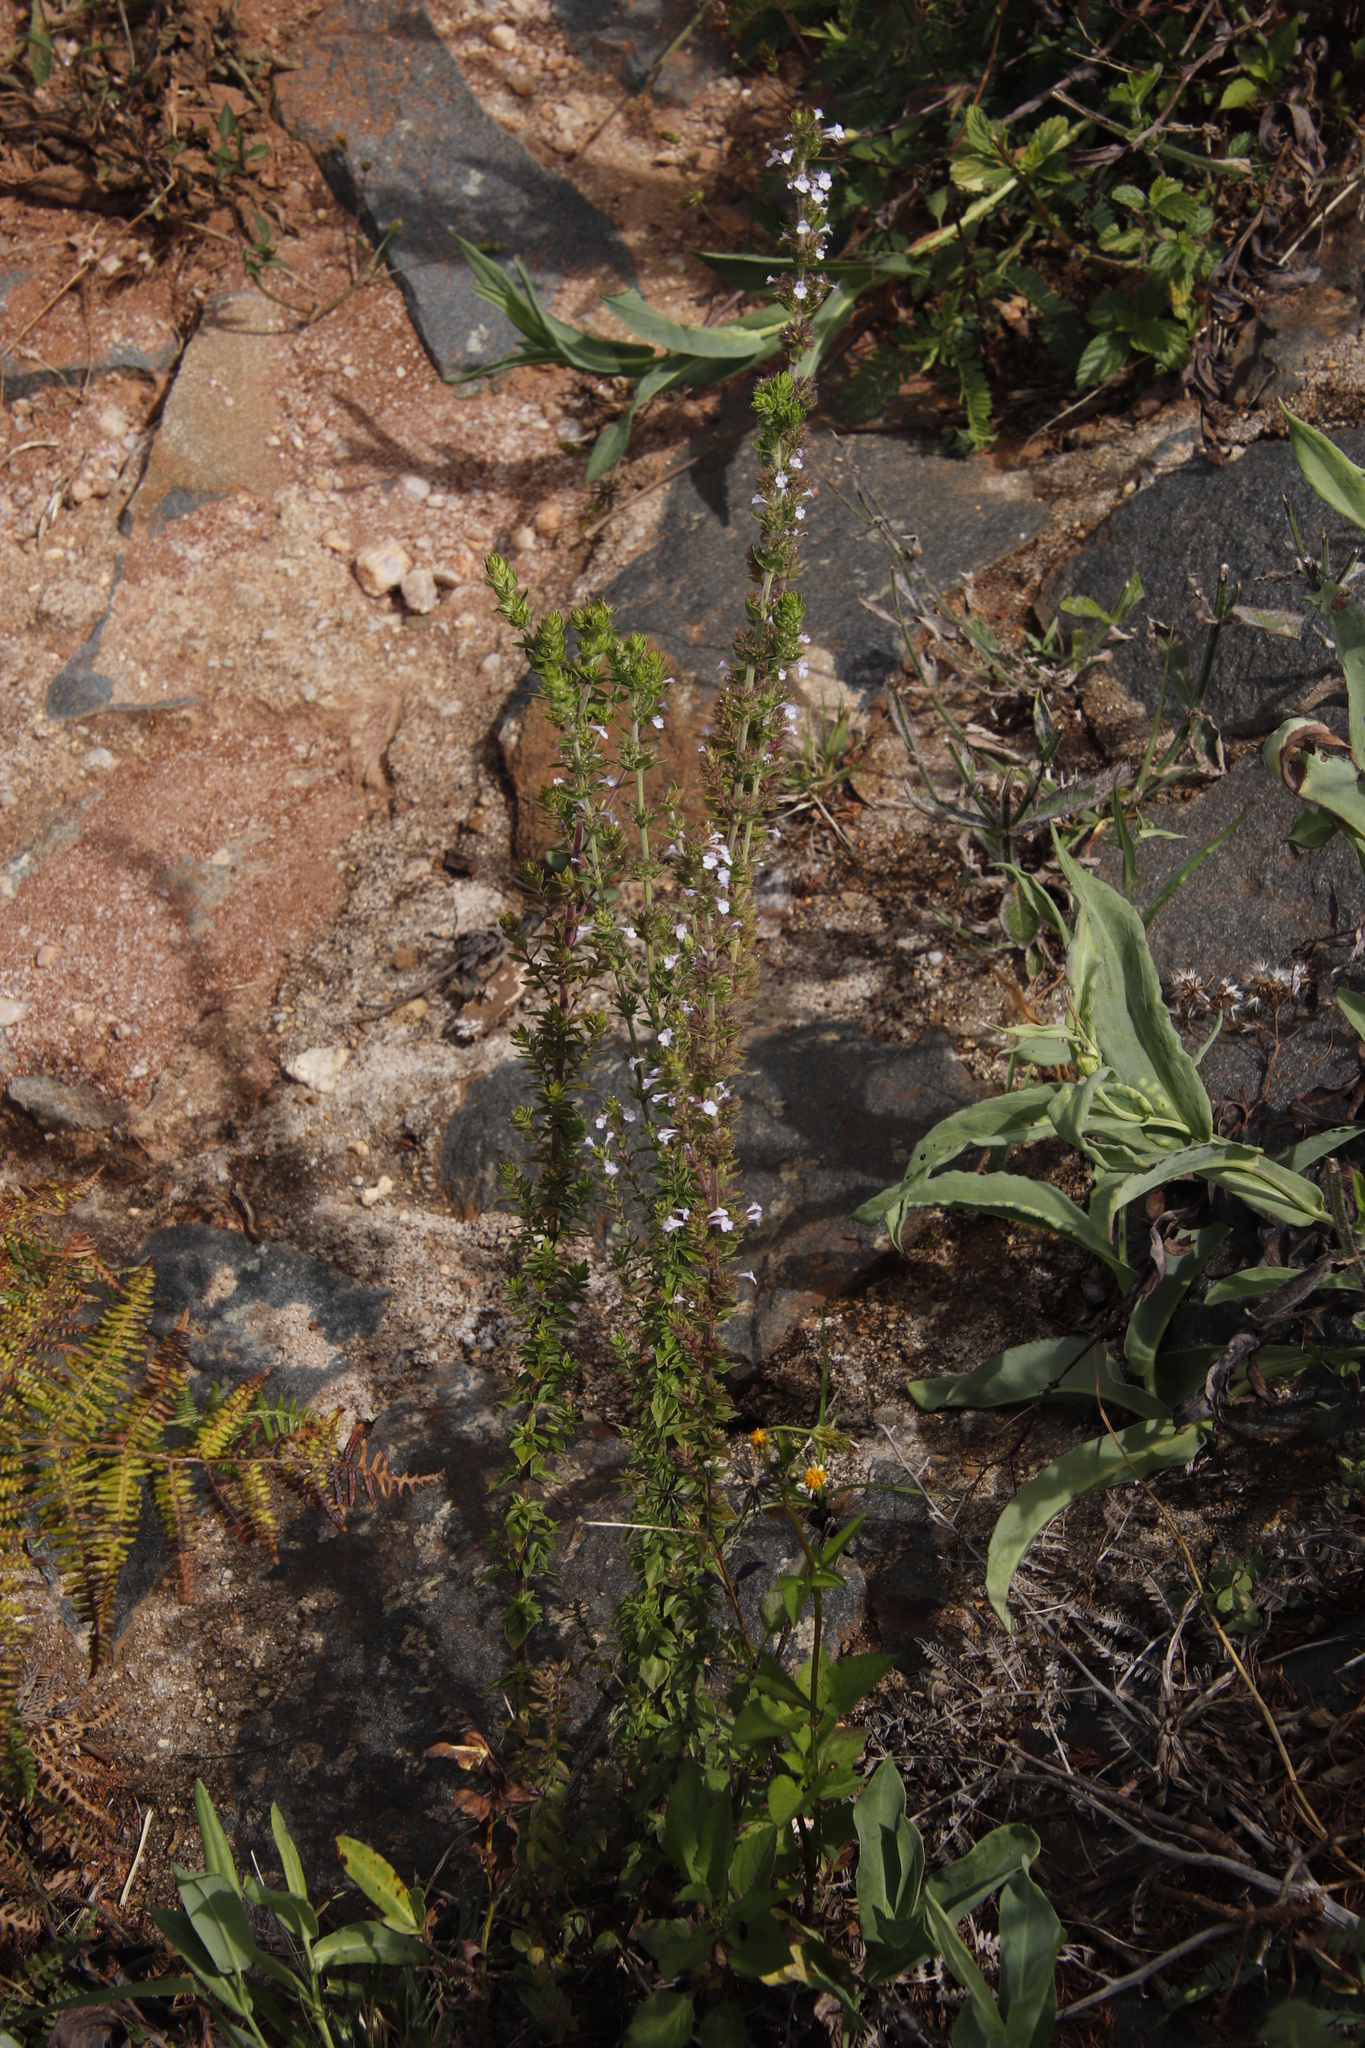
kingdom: Plantae
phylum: Tracheophyta
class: Magnoliopsida
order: Lamiales
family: Lamiaceae
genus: Micromeria
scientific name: Micromeria imbricata
